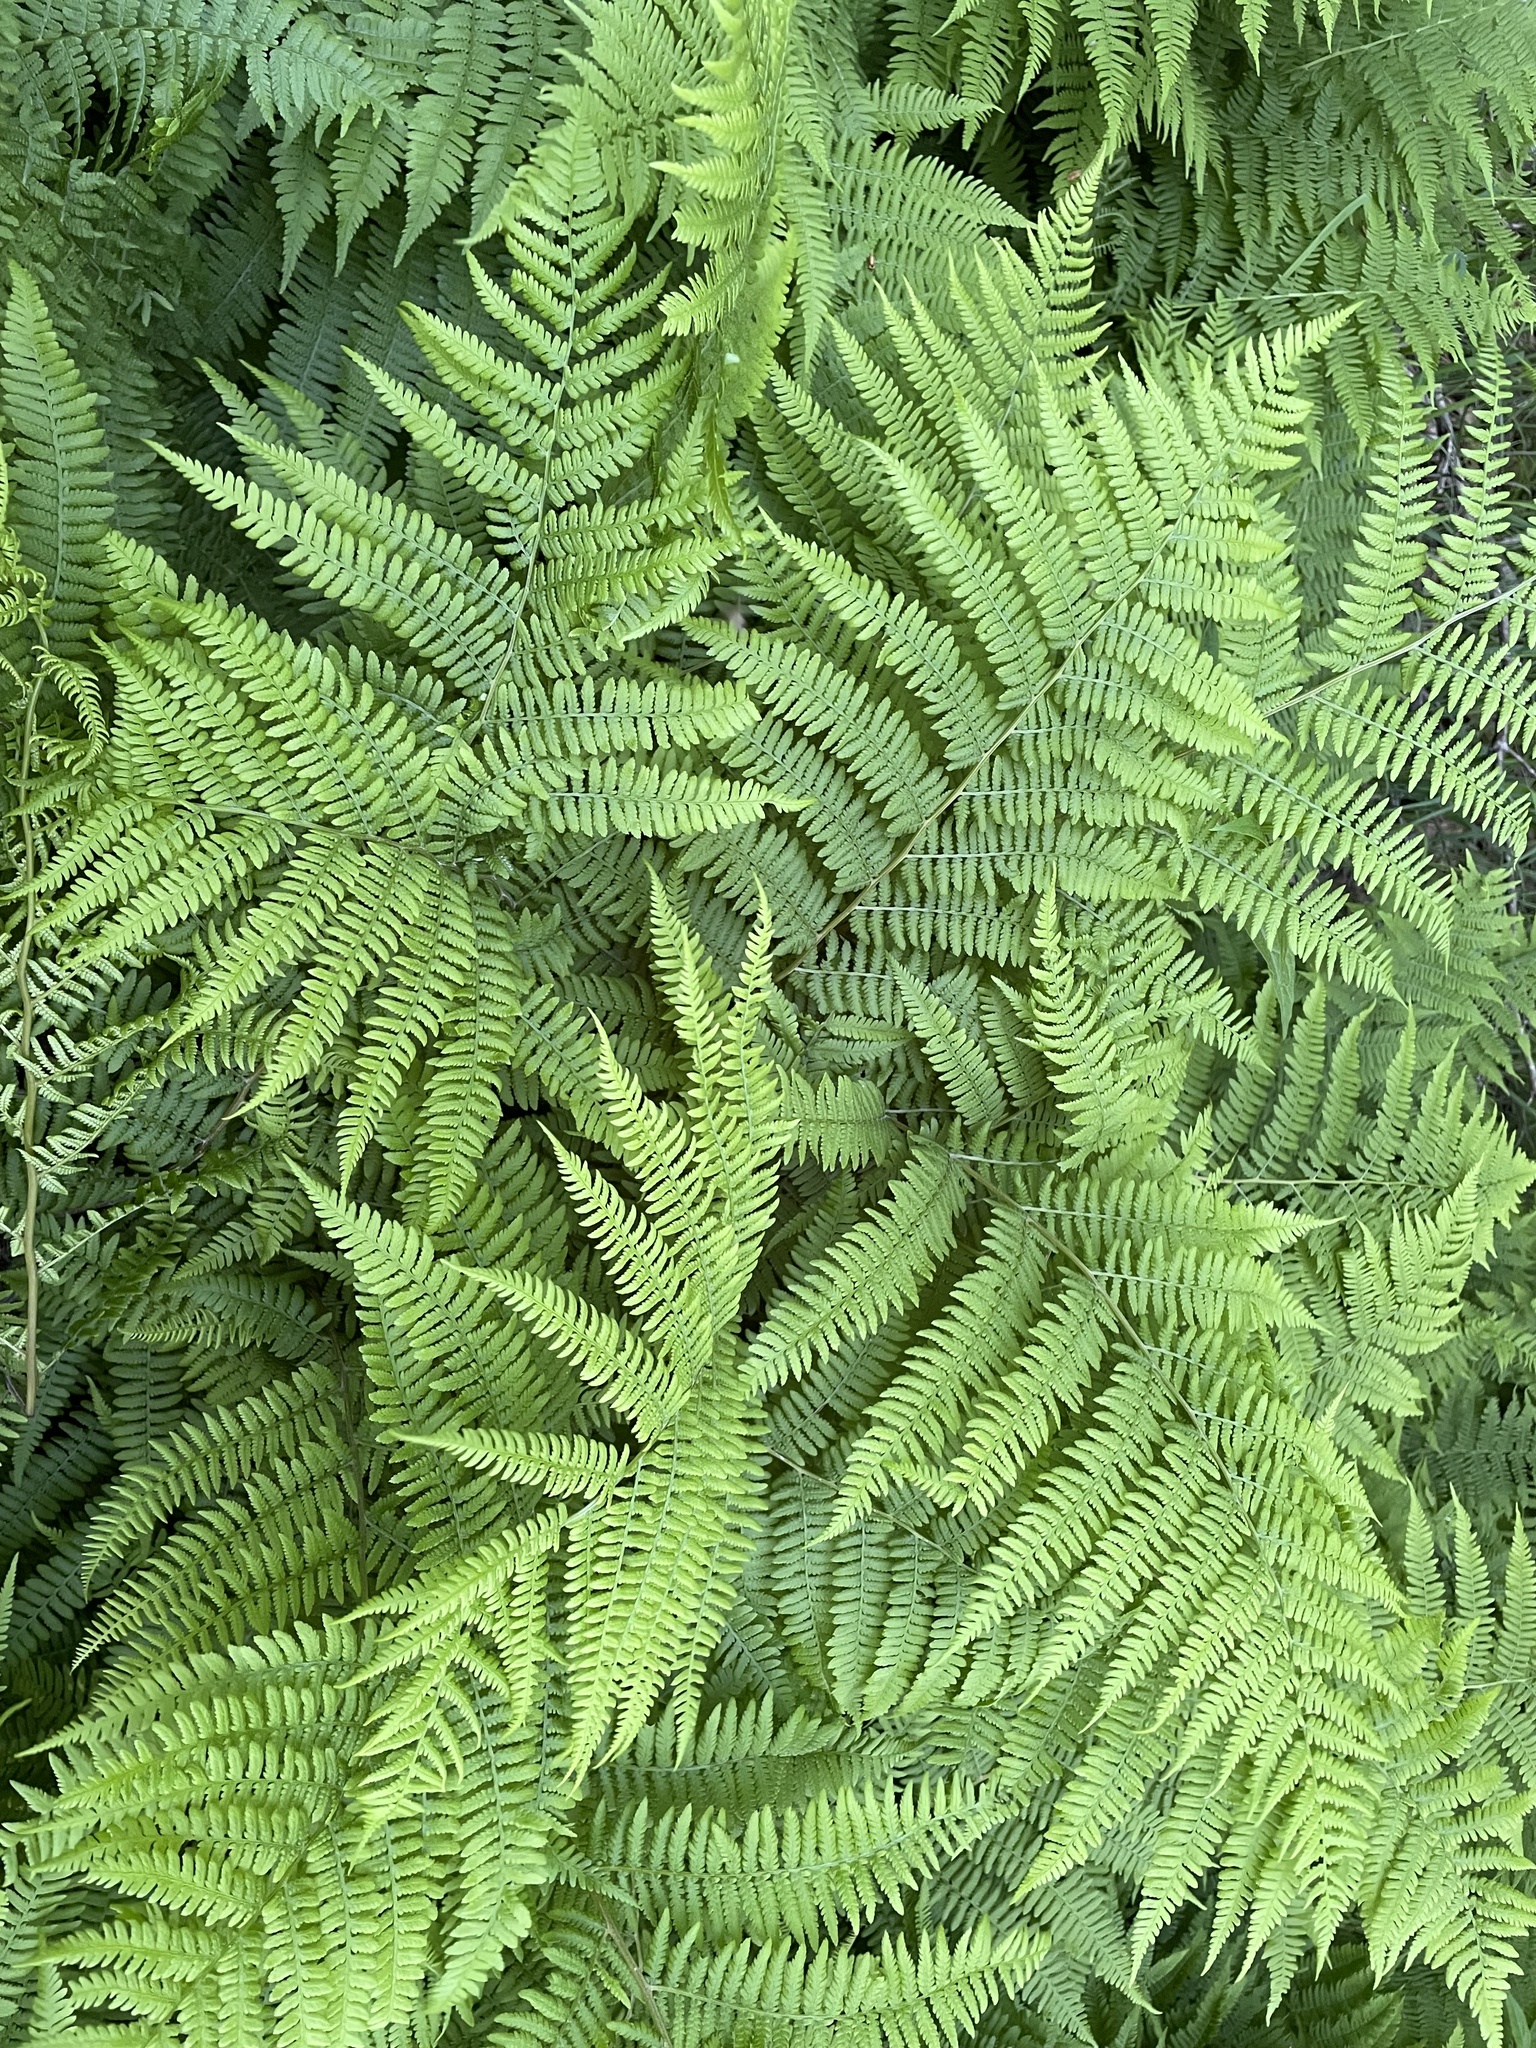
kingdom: Plantae
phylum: Tracheophyta
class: Polypodiopsida
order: Polypodiales
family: Athyriaceae
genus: Athyrium
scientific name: Athyrium angustum
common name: Northern lady fern
